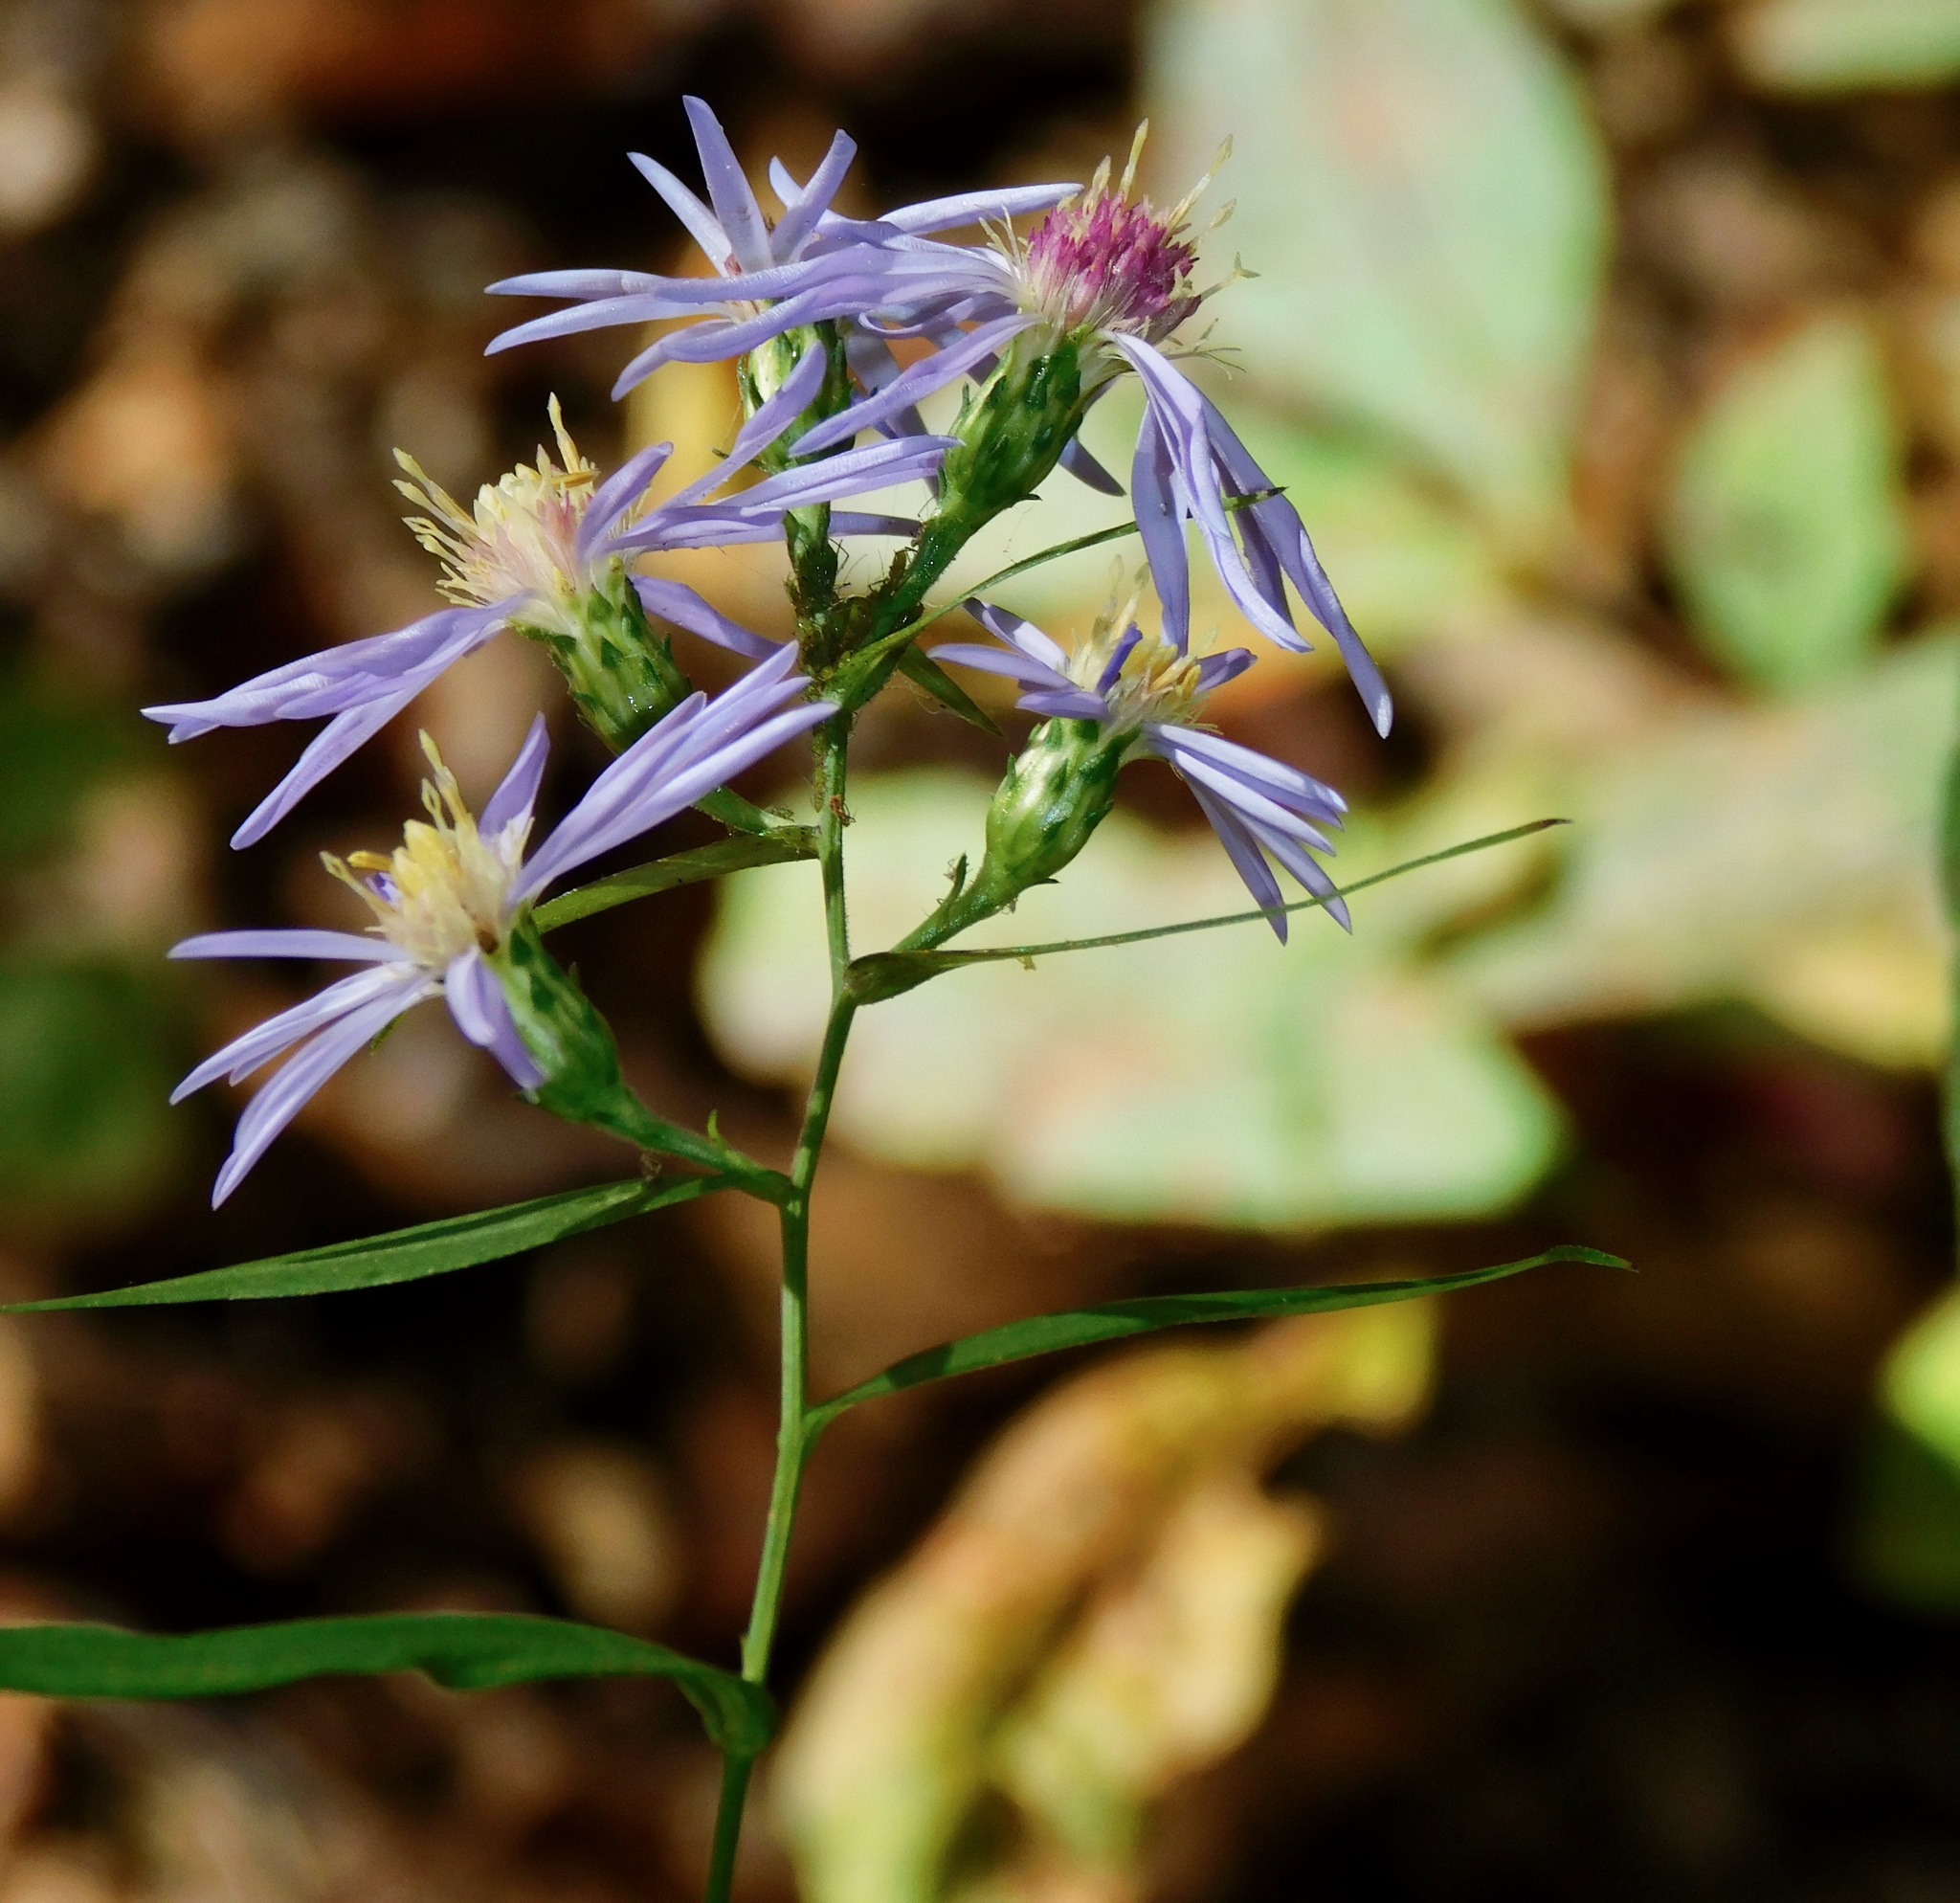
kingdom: Plantae
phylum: Tracheophyta
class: Magnoliopsida
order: Asterales
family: Asteraceae
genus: Symphyotrichum
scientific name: Symphyotrichum oolentangiense
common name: Azure aster
